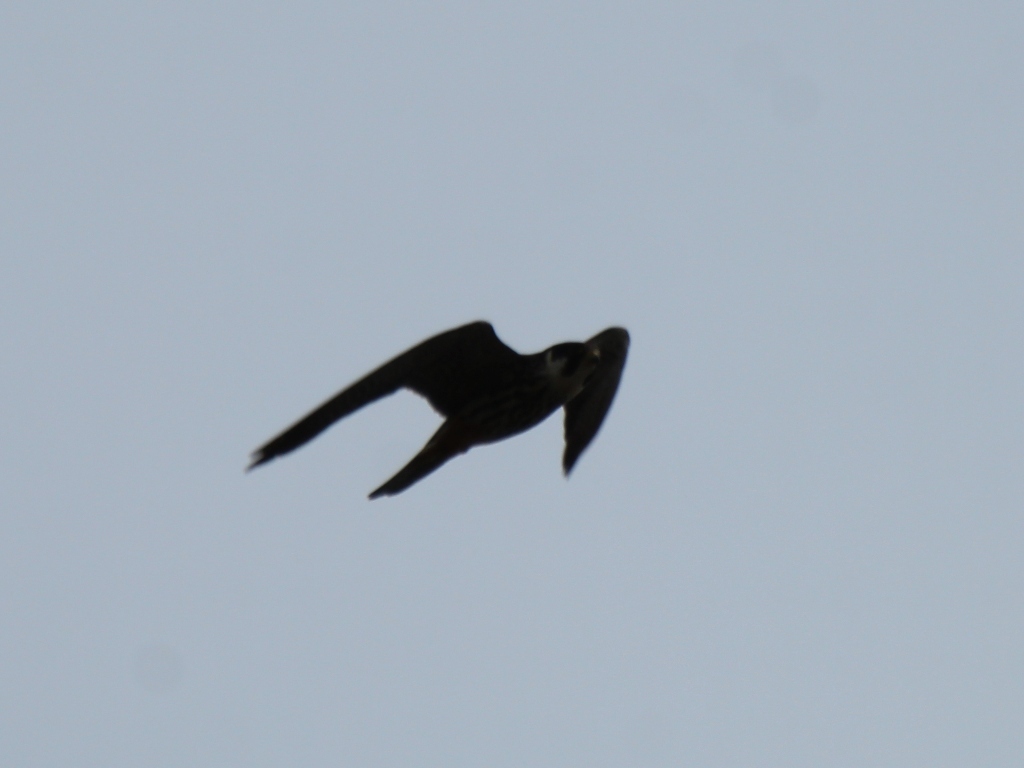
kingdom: Animalia
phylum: Chordata
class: Aves
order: Falconiformes
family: Falconidae
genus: Falco
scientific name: Falco subbuteo
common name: Eurasian hobby
